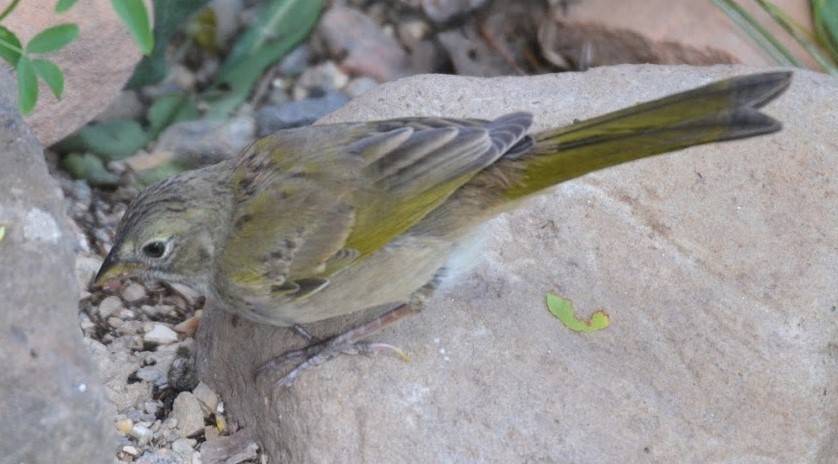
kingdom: Animalia
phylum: Chordata
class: Aves
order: Passeriformes
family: Passerellidae
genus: Pipilo
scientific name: Pipilo chlorurus
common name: Green-tailed towhee
